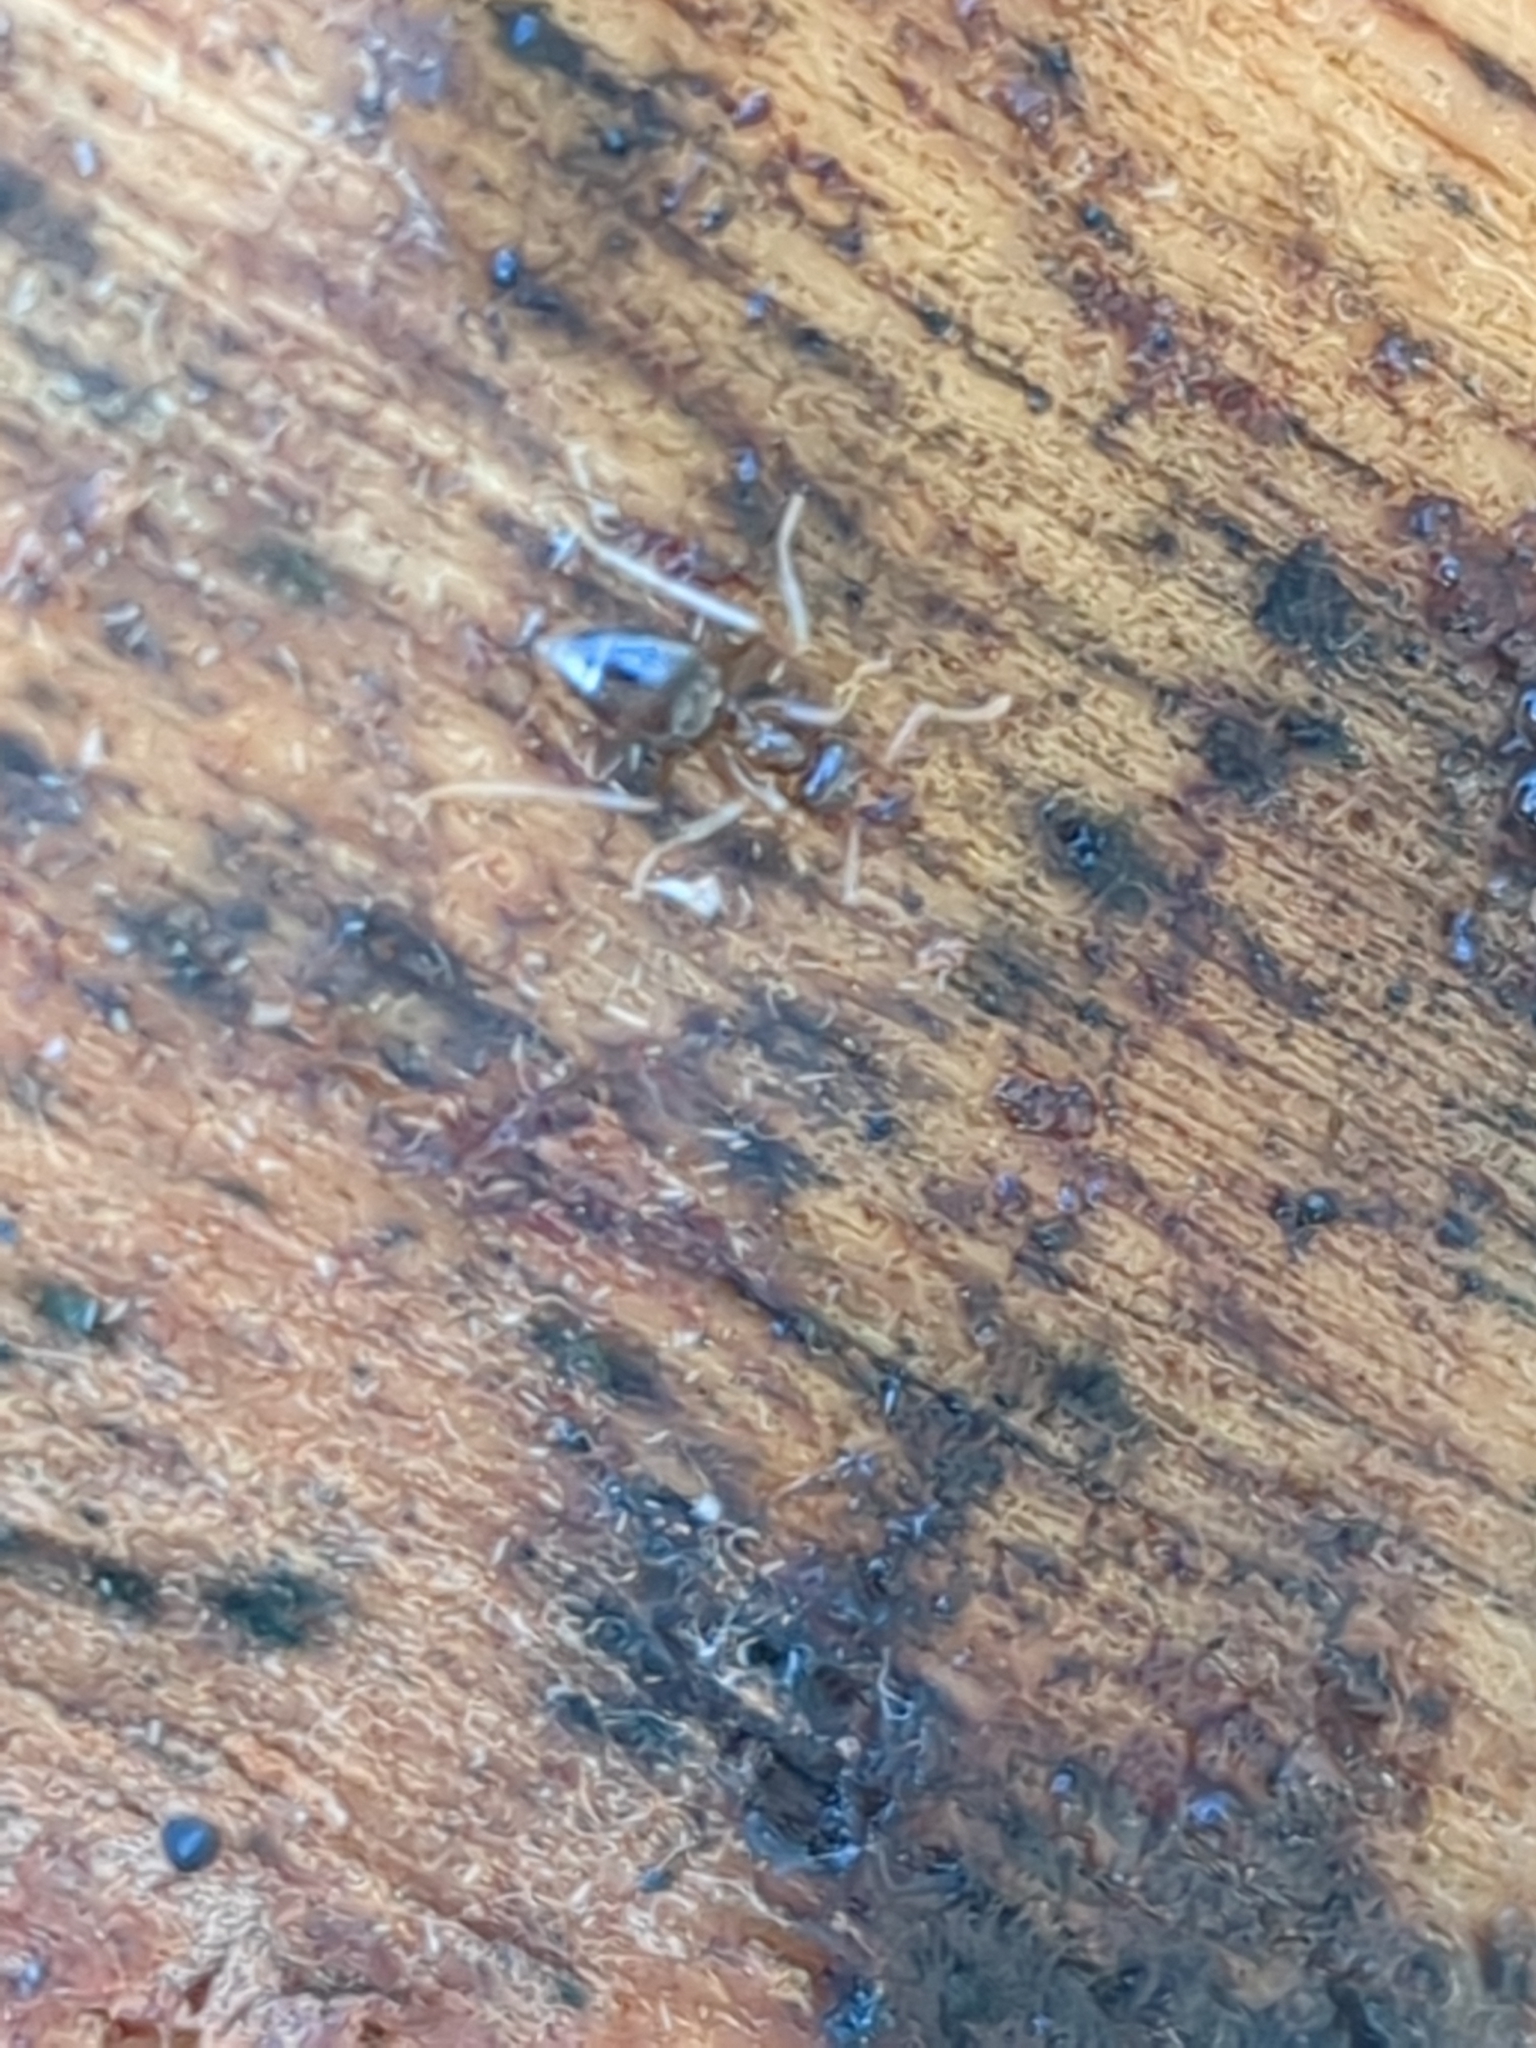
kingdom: Animalia
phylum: Arthropoda
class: Insecta
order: Hymenoptera
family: Formicidae
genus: Prenolepis
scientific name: Prenolepis imparis
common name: Small honey ant
